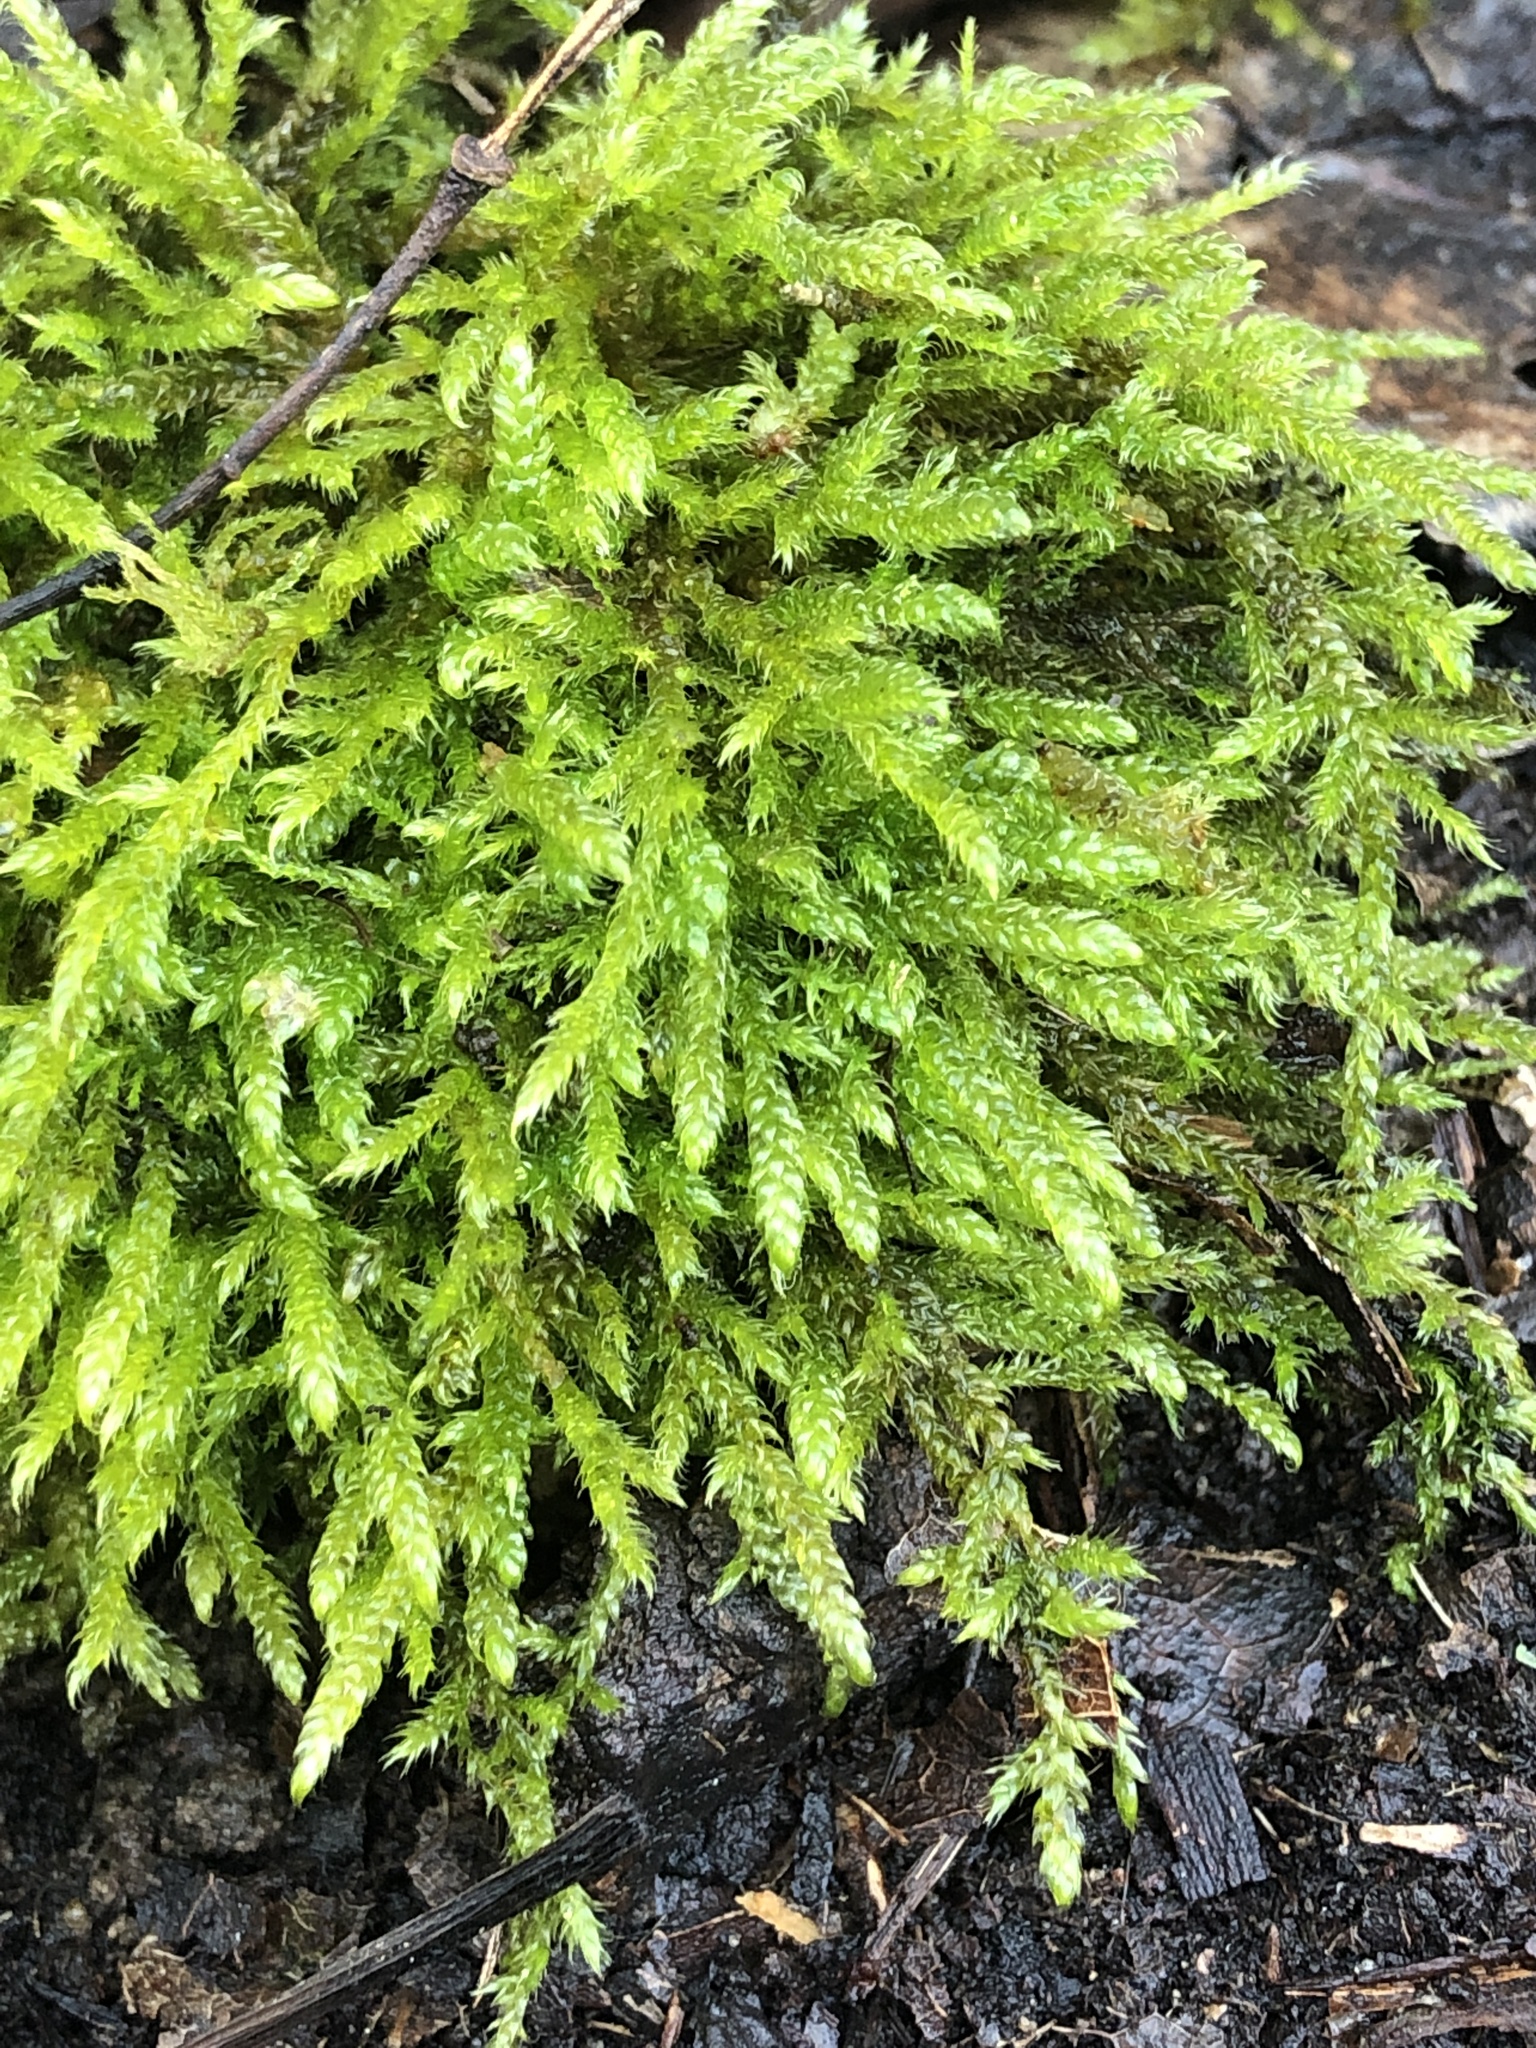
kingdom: Plantae
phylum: Bryophyta
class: Bryopsida
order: Hypnales
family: Hypnaceae
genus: Hypnum
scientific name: Hypnum cupressiforme
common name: Cypress-leaved plait-moss
